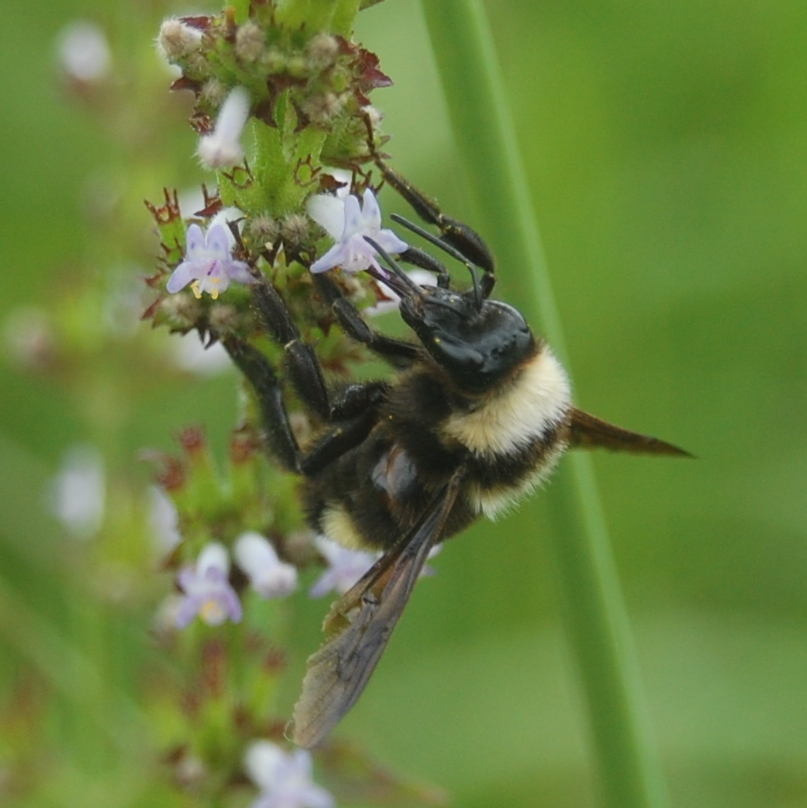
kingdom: Animalia
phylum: Arthropoda
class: Insecta
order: Hymenoptera
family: Apidae
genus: Bombus
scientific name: Bombus pauloensis
